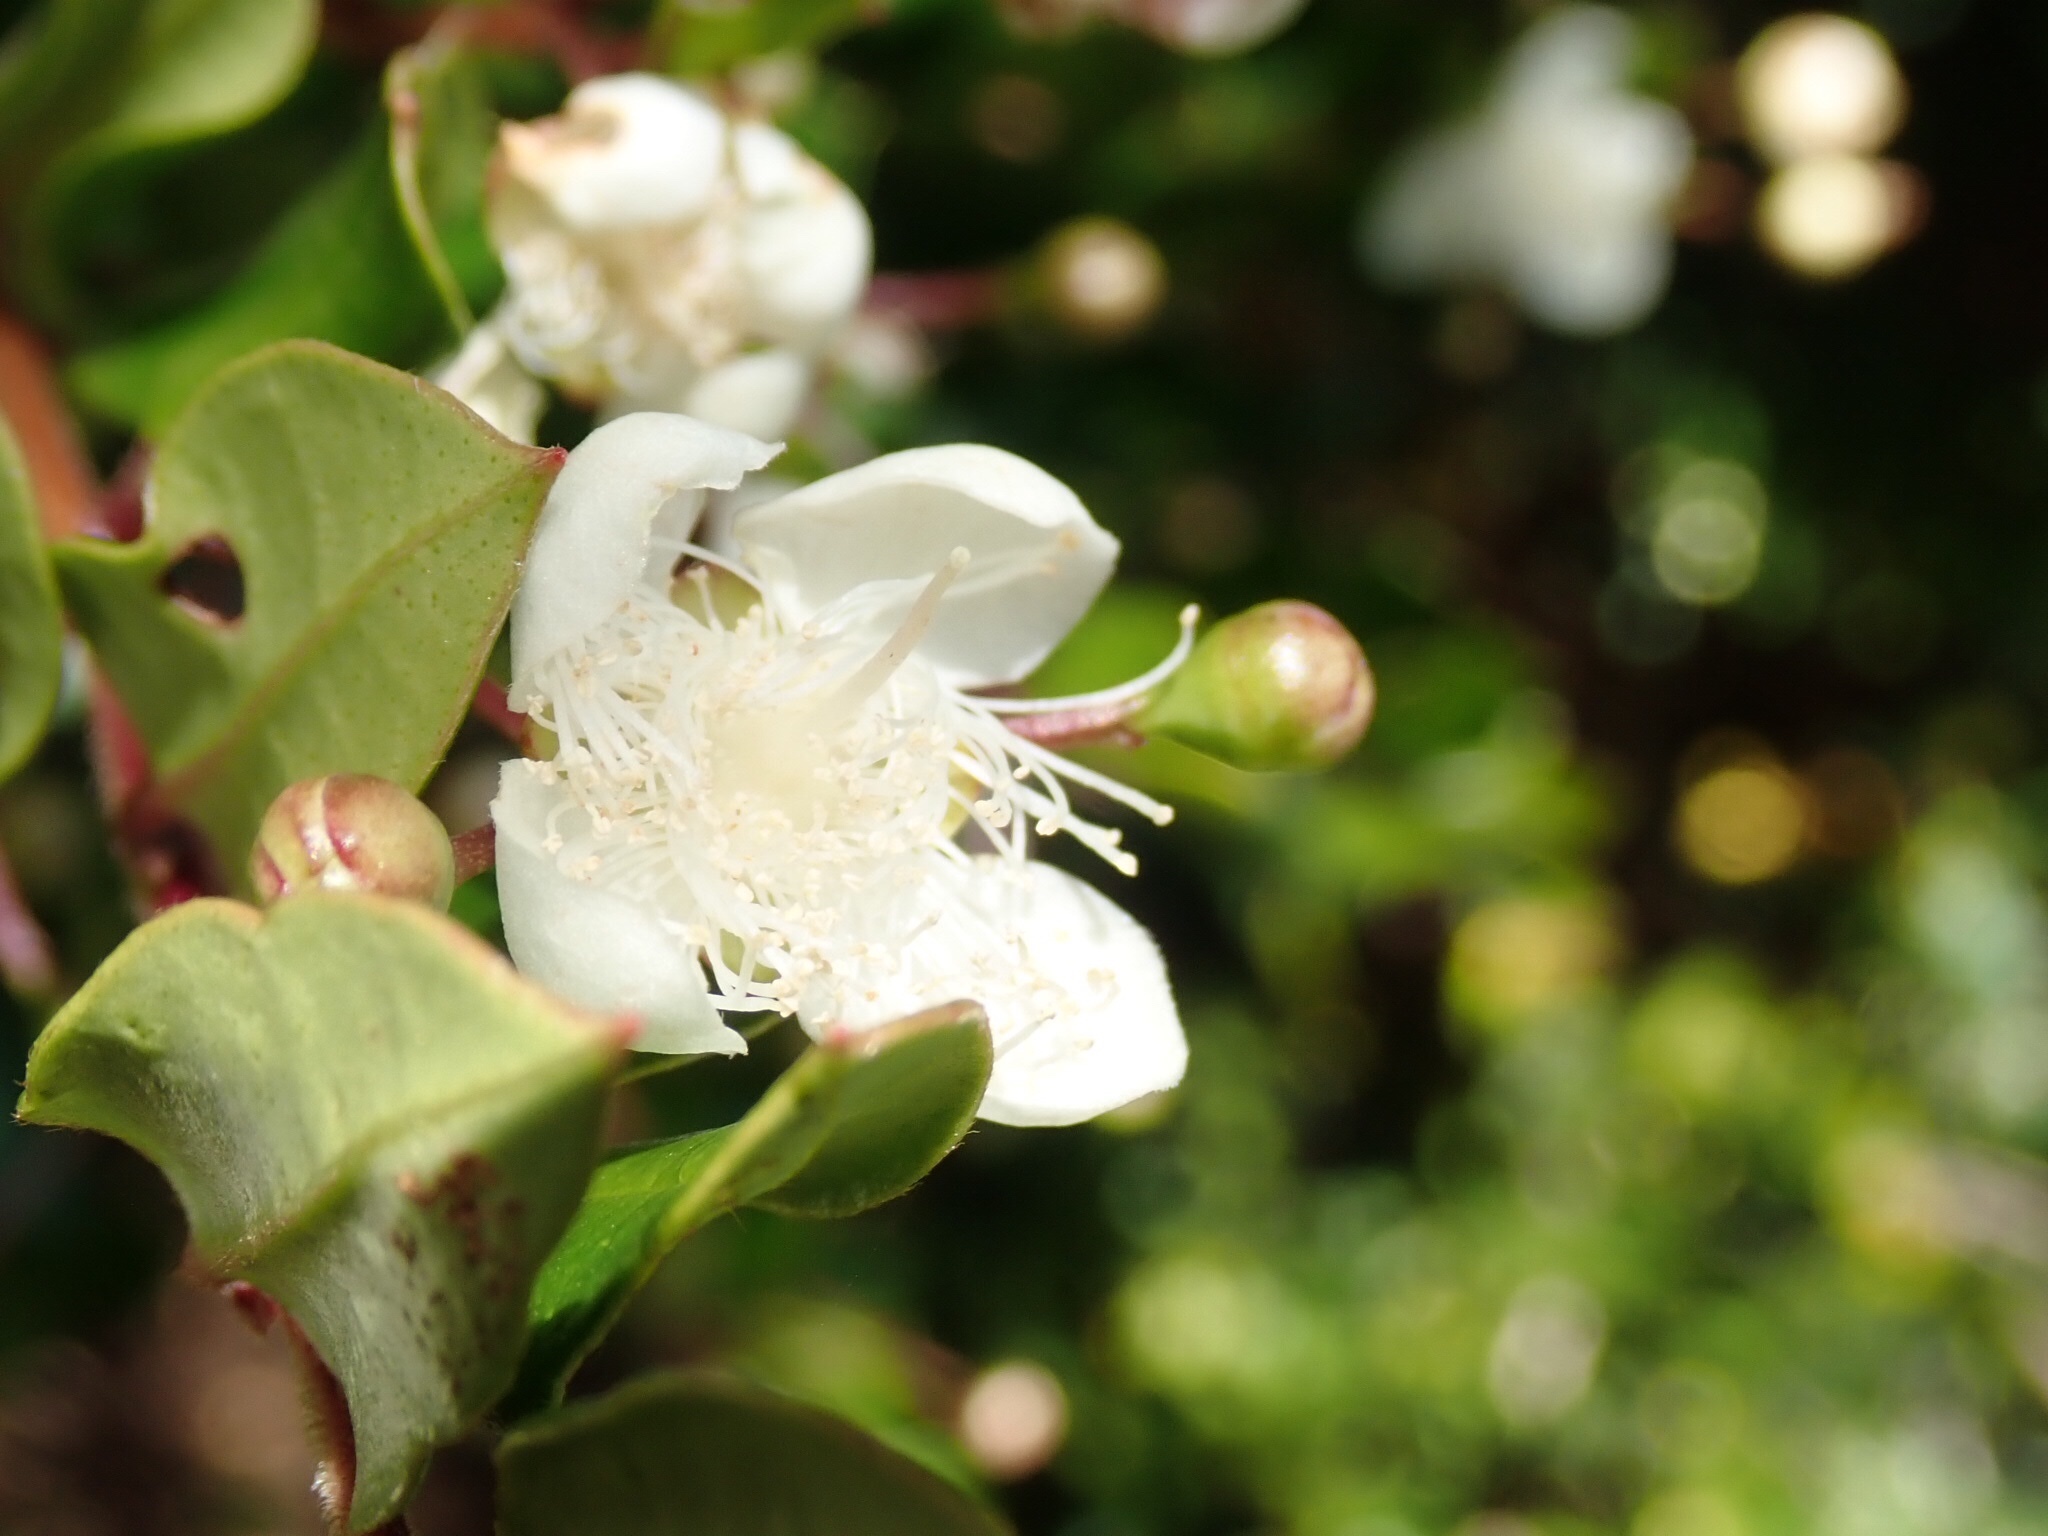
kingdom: Plantae
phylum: Tracheophyta
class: Magnoliopsida
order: Myrtales
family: Myrtaceae
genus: Luma
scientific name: Luma apiculata
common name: Chilean myrtle
